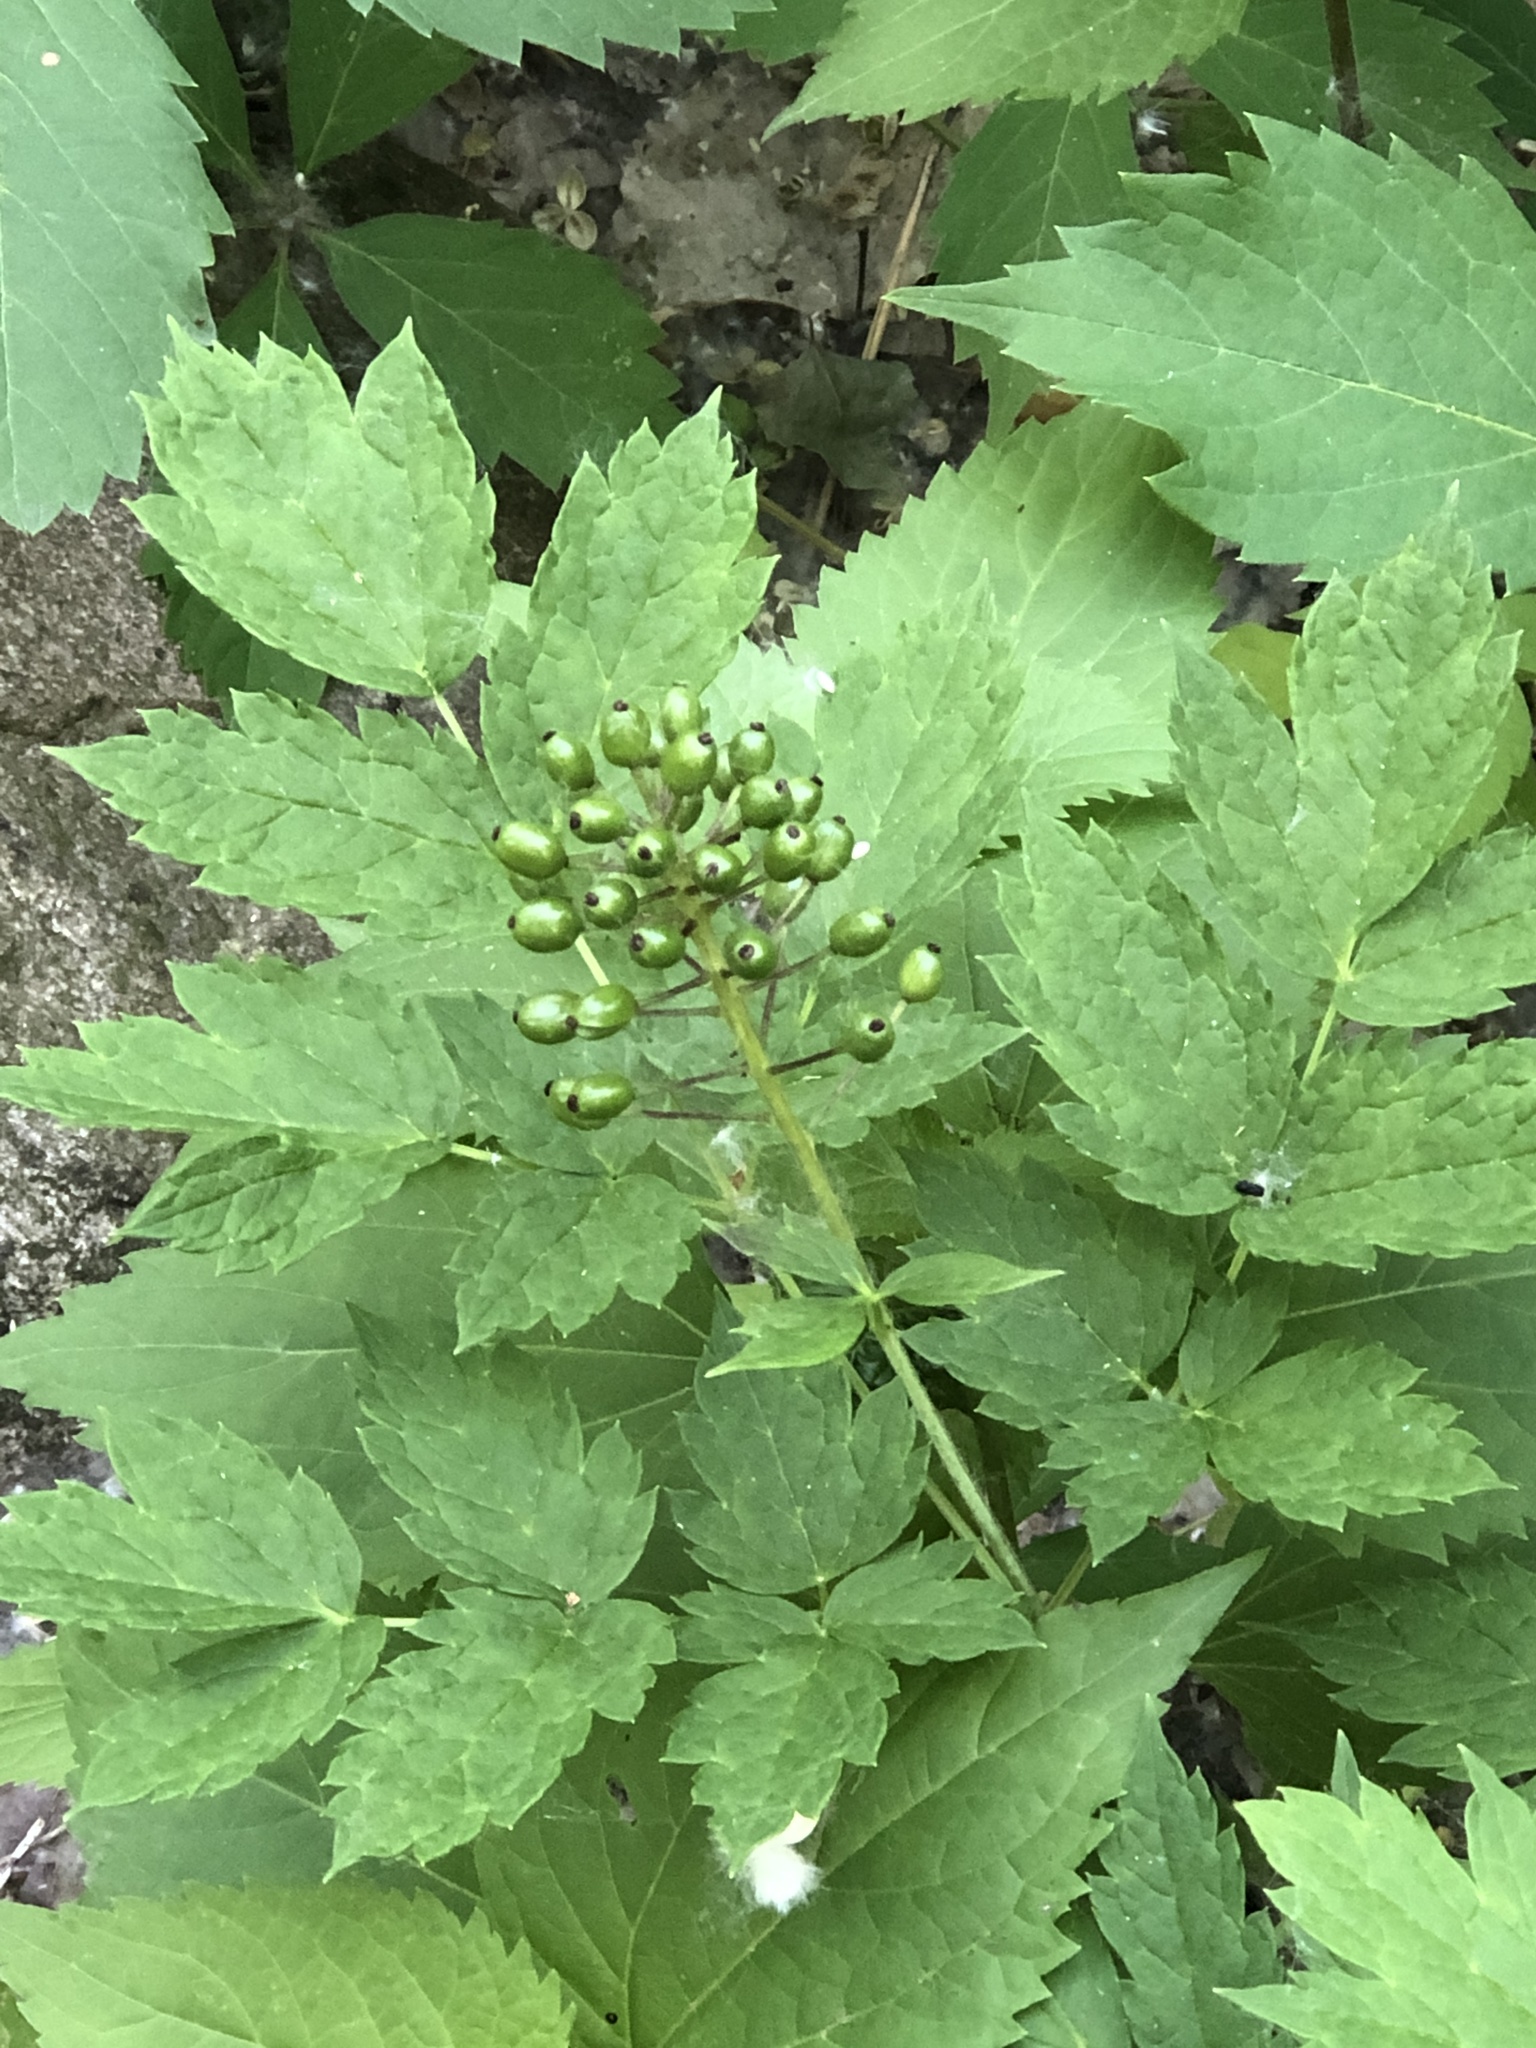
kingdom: Plantae
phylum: Tracheophyta
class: Magnoliopsida
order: Ranunculales
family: Ranunculaceae
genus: Actaea
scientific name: Actaea rubra
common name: Red baneberry
